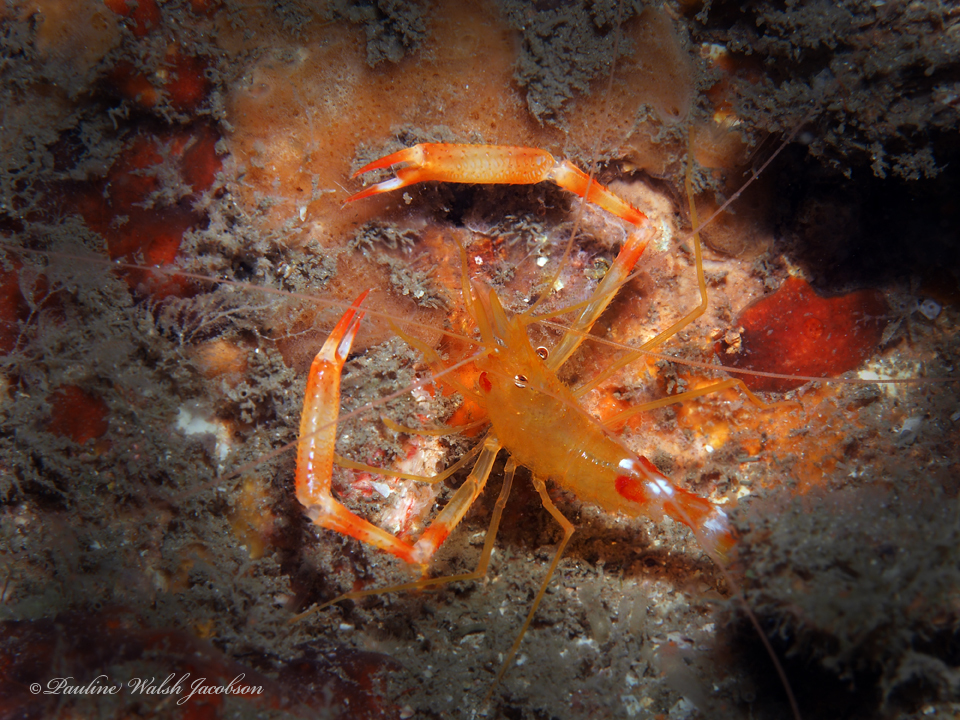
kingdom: Animalia
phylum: Arthropoda
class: Malacostraca
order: Decapoda
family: Stenopodidae
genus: Stenopus
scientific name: Stenopus scutellatus
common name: Golden coral shrimp
